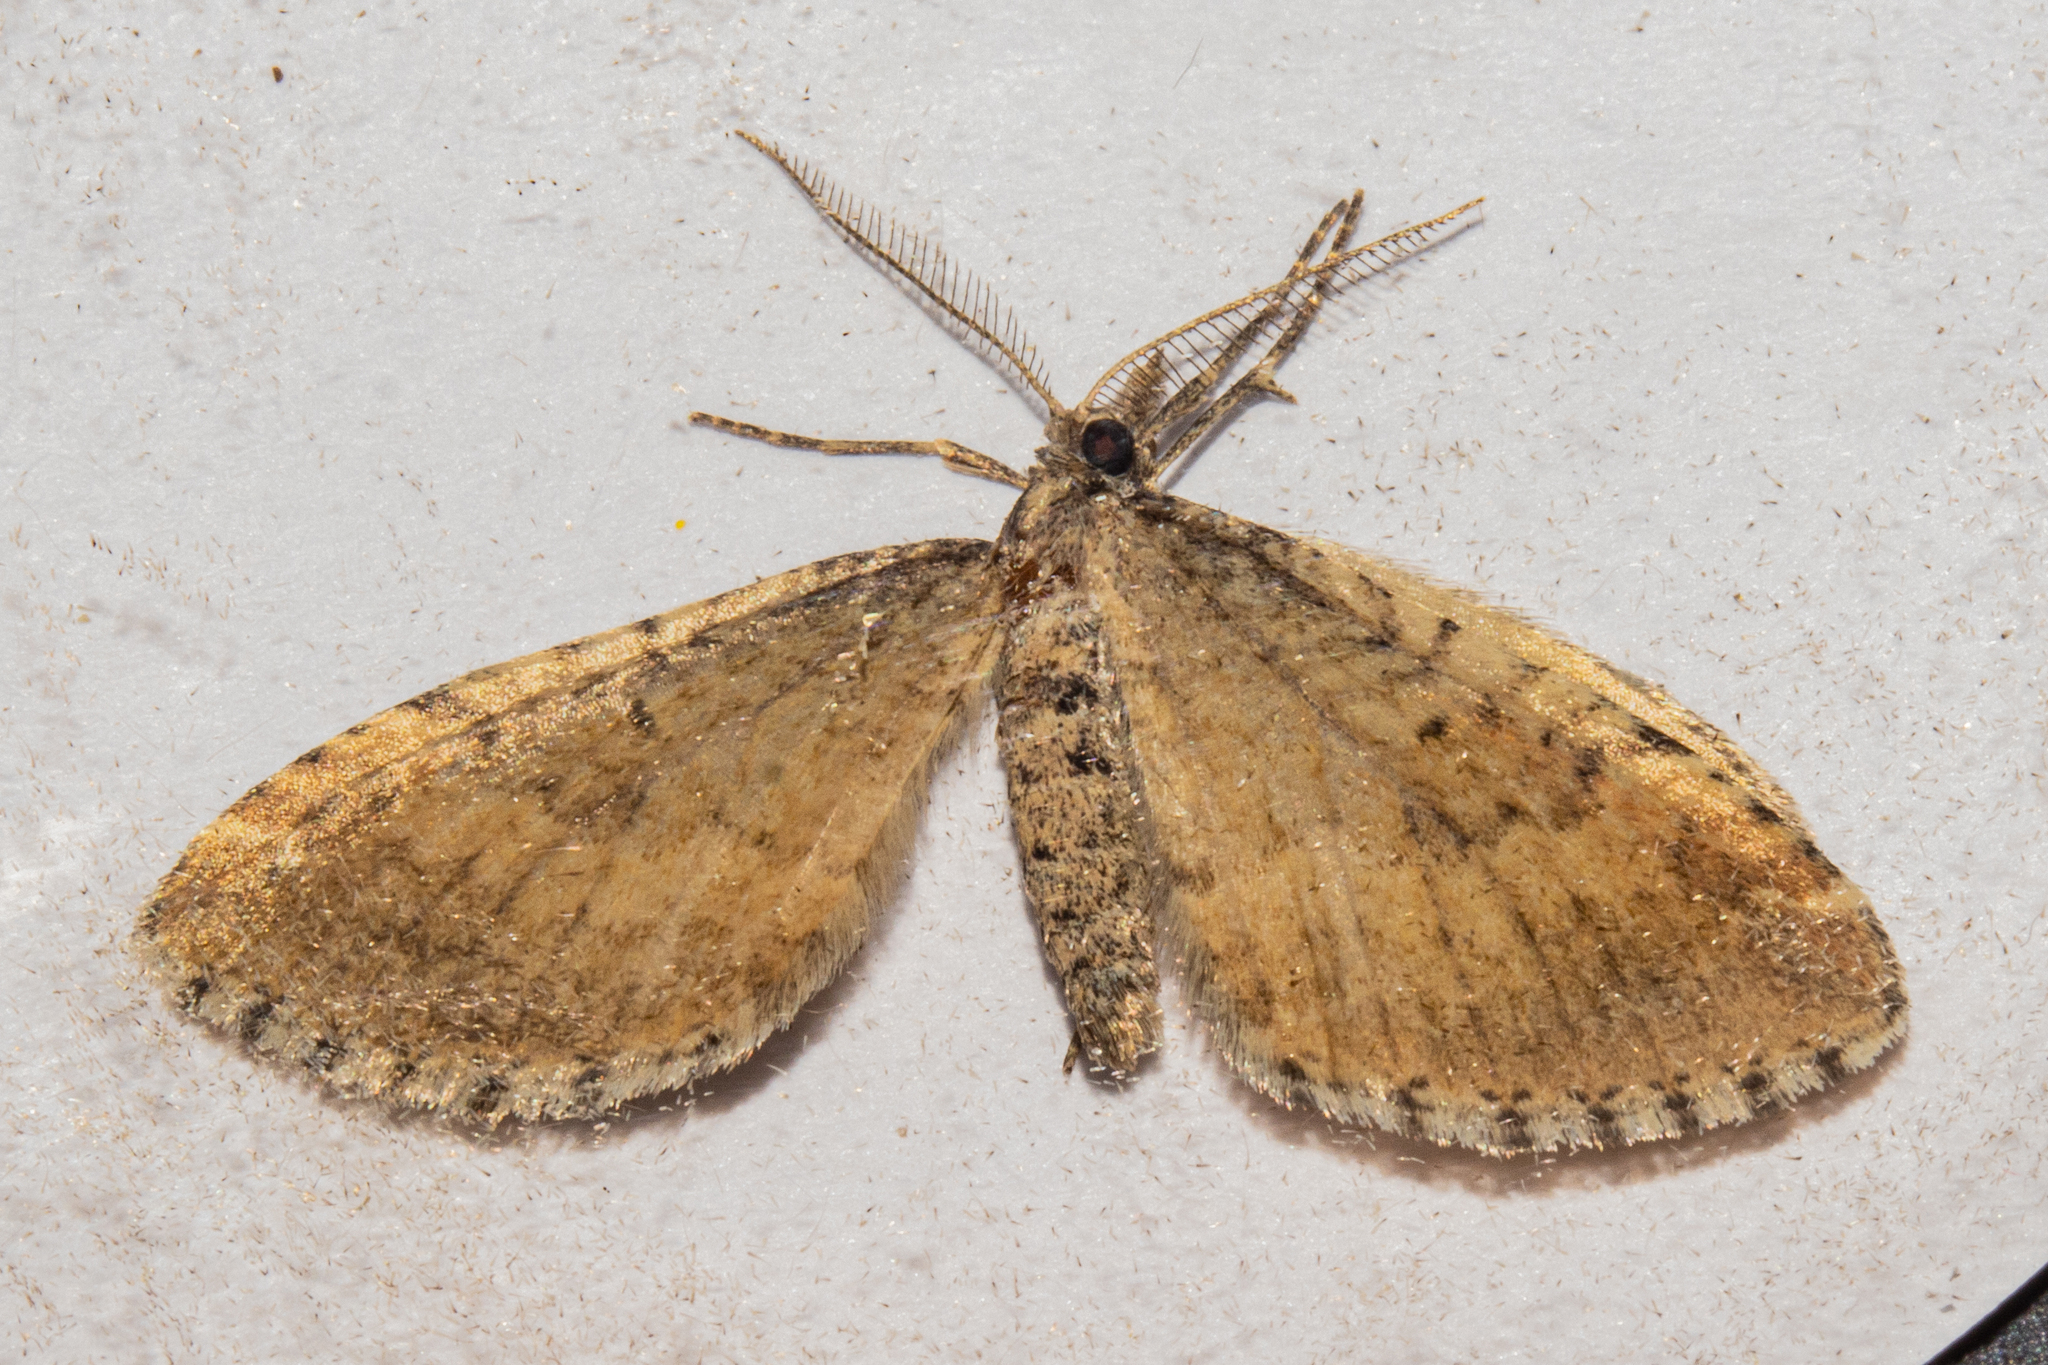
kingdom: Animalia
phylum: Arthropoda
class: Insecta
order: Lepidoptera
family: Geometridae
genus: Asaphodes
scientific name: Asaphodes aegrota
